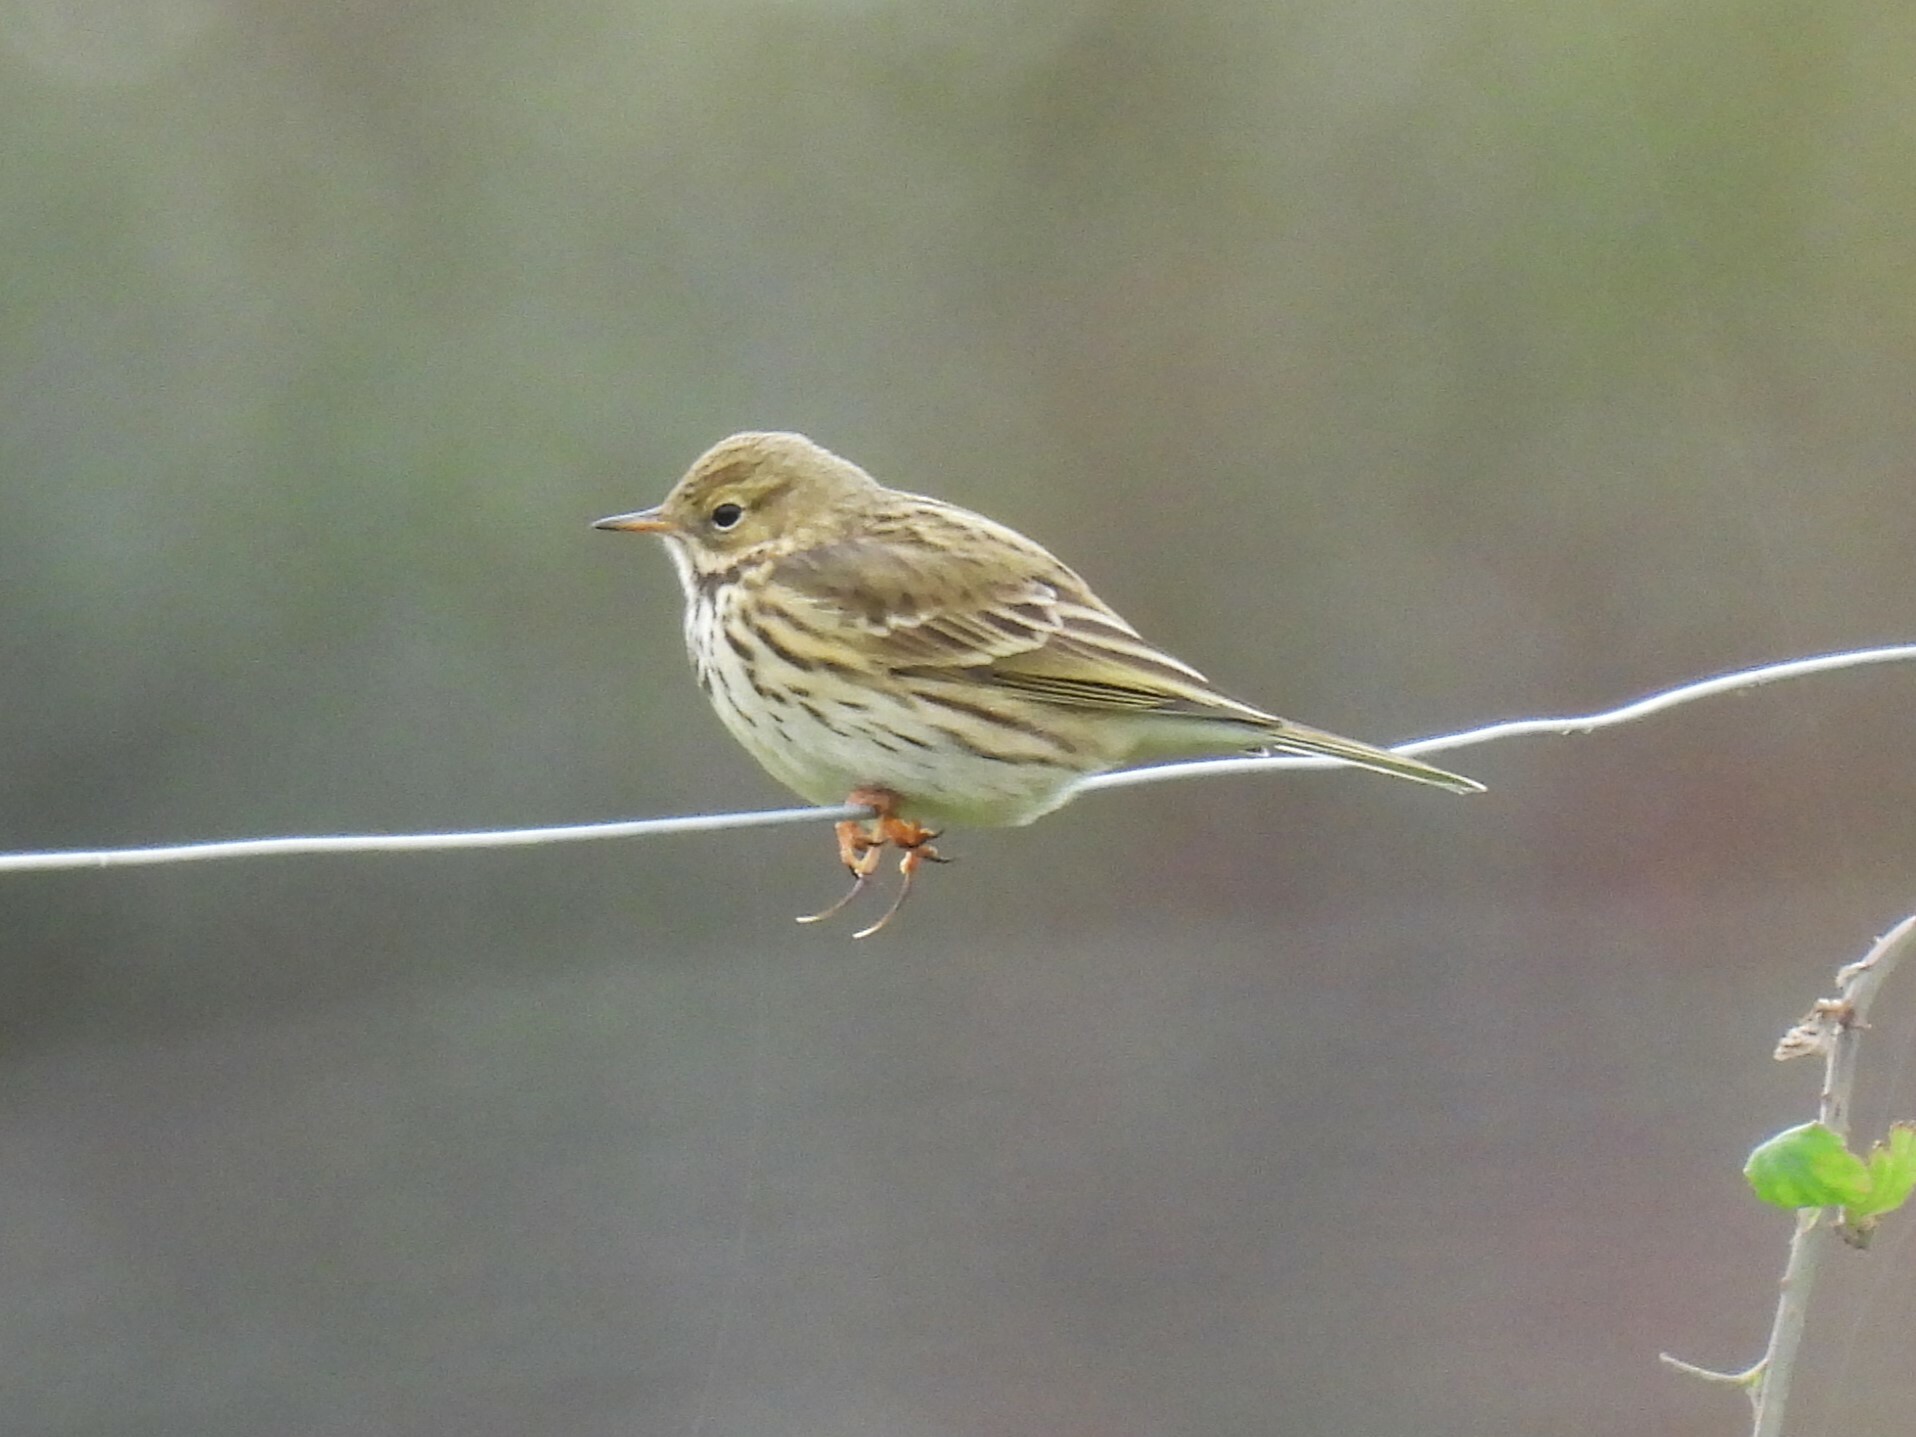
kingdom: Animalia
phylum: Chordata
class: Aves
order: Passeriformes
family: Motacillidae
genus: Anthus
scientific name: Anthus pratensis
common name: Meadow pipit
